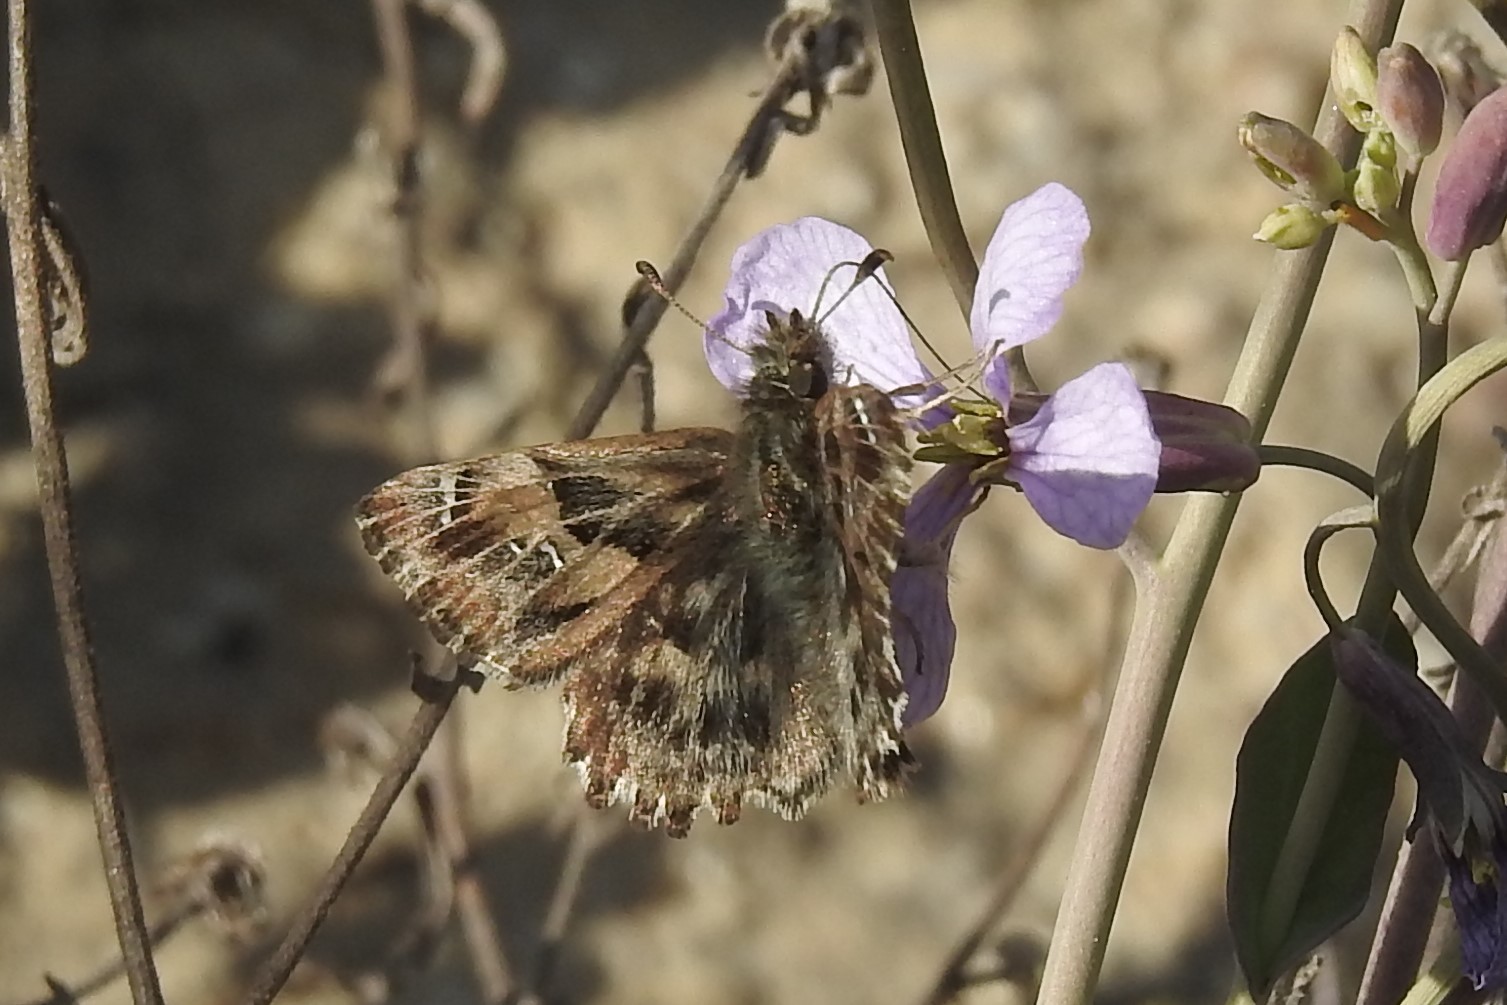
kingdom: Animalia
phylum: Arthropoda
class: Insecta
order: Lepidoptera
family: Hesperiidae
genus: Carcharodus
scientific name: Carcharodus alceae
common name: Mallow skipper
